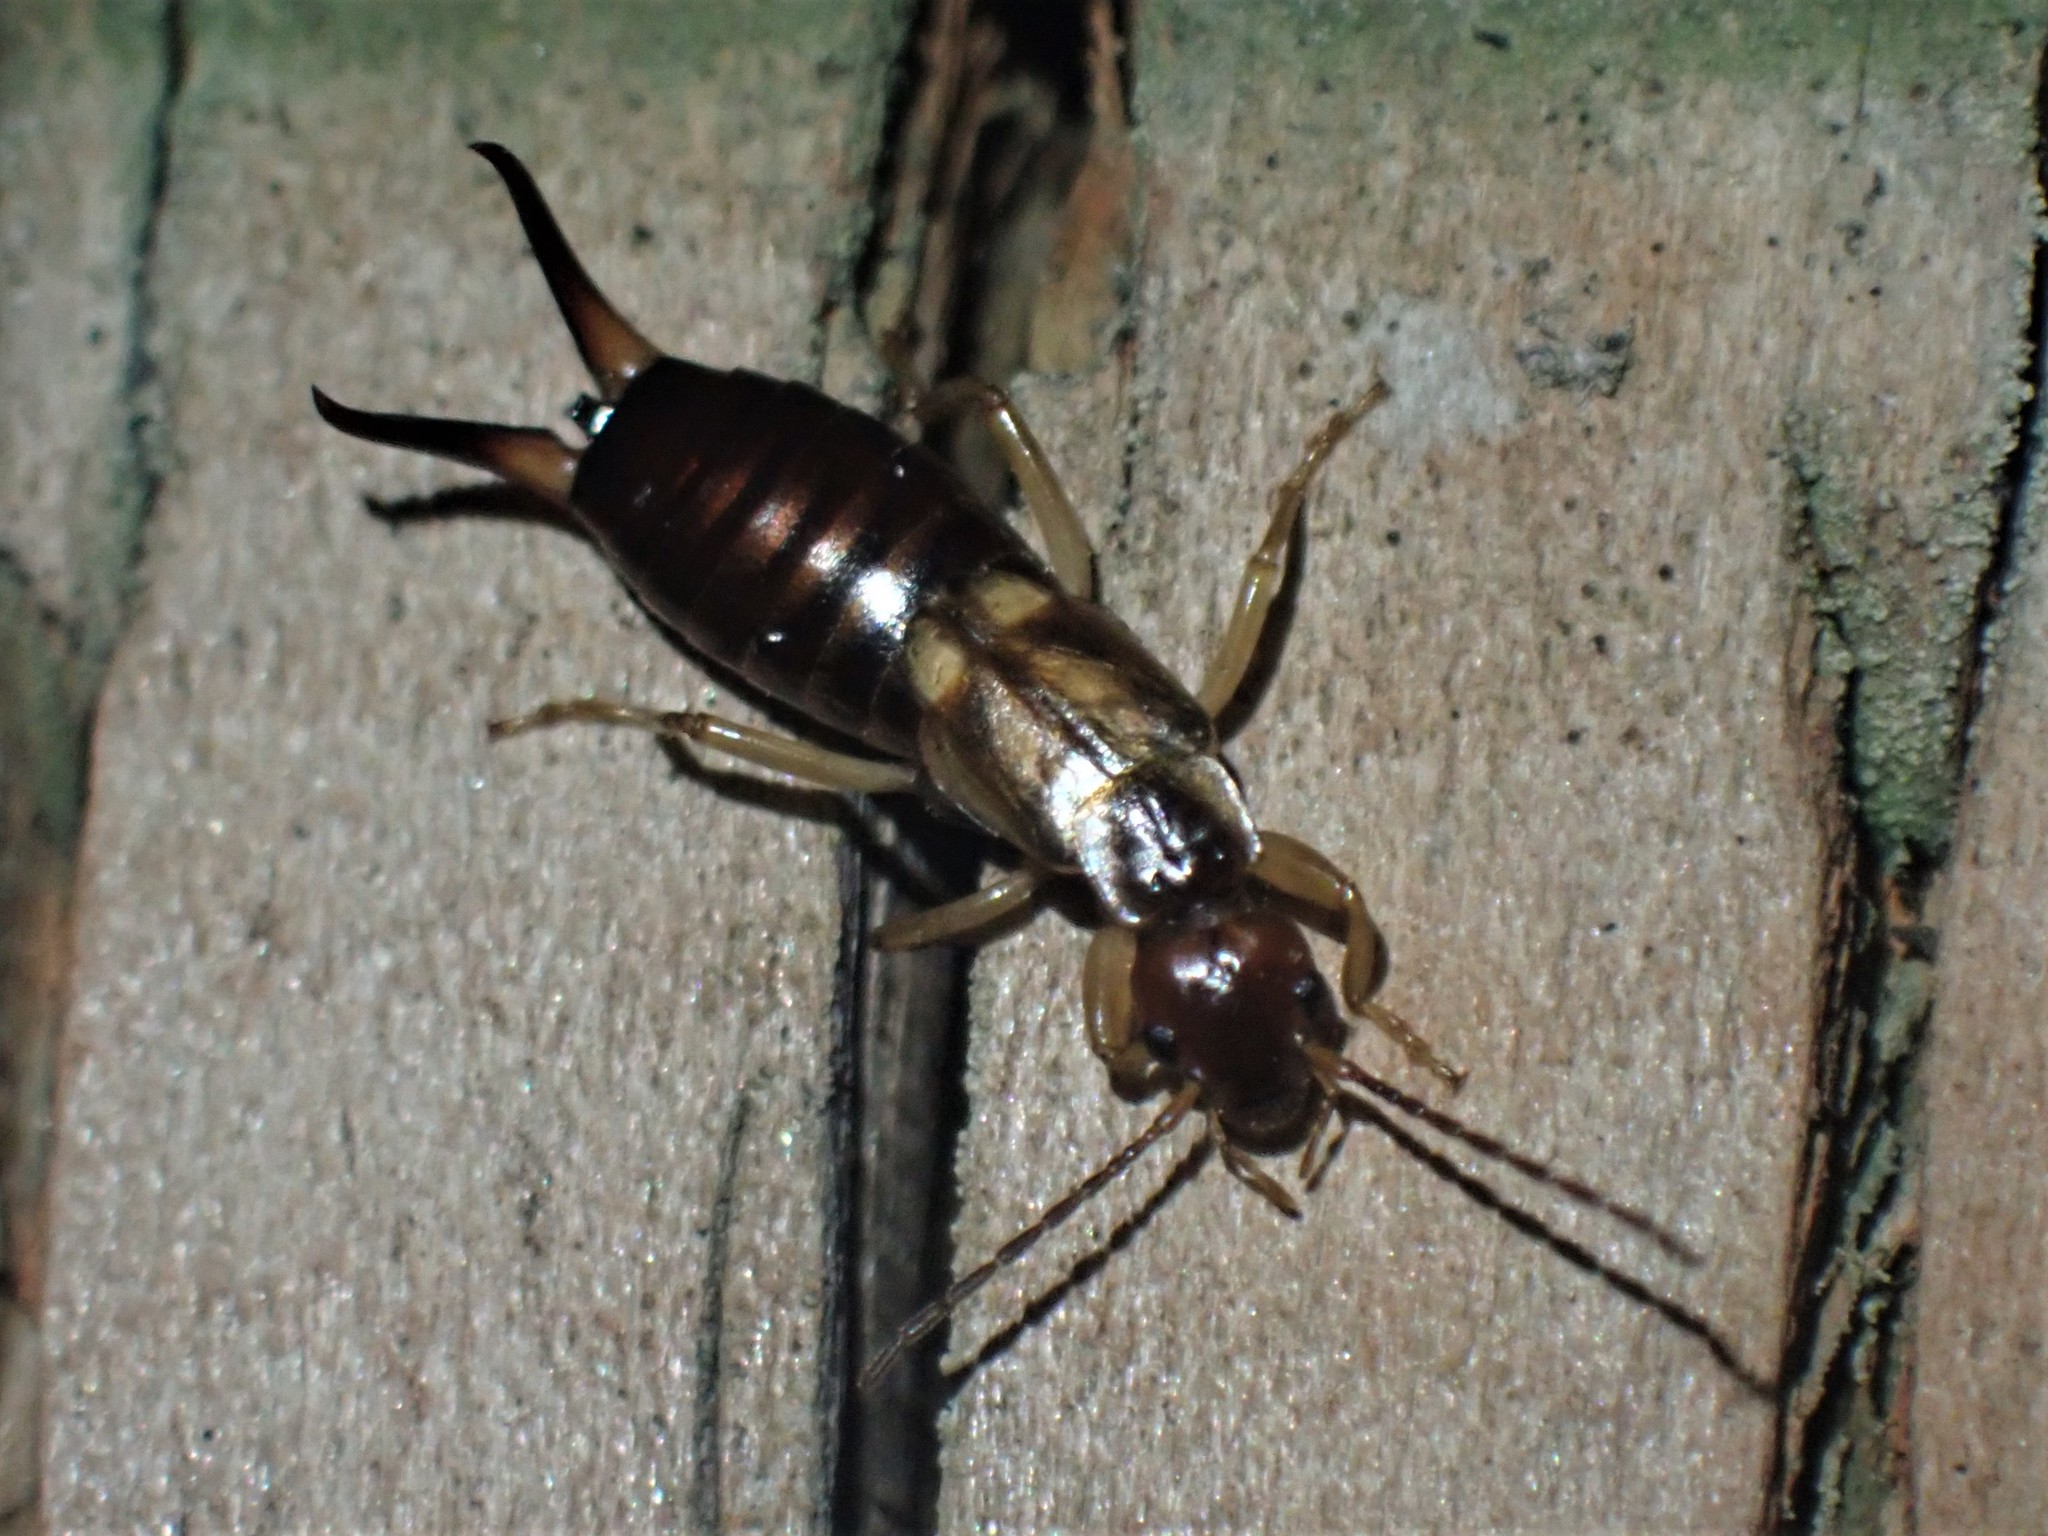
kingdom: Animalia
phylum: Arthropoda
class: Insecta
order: Dermaptera
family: Forficulidae
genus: Forficula
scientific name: Forficula
